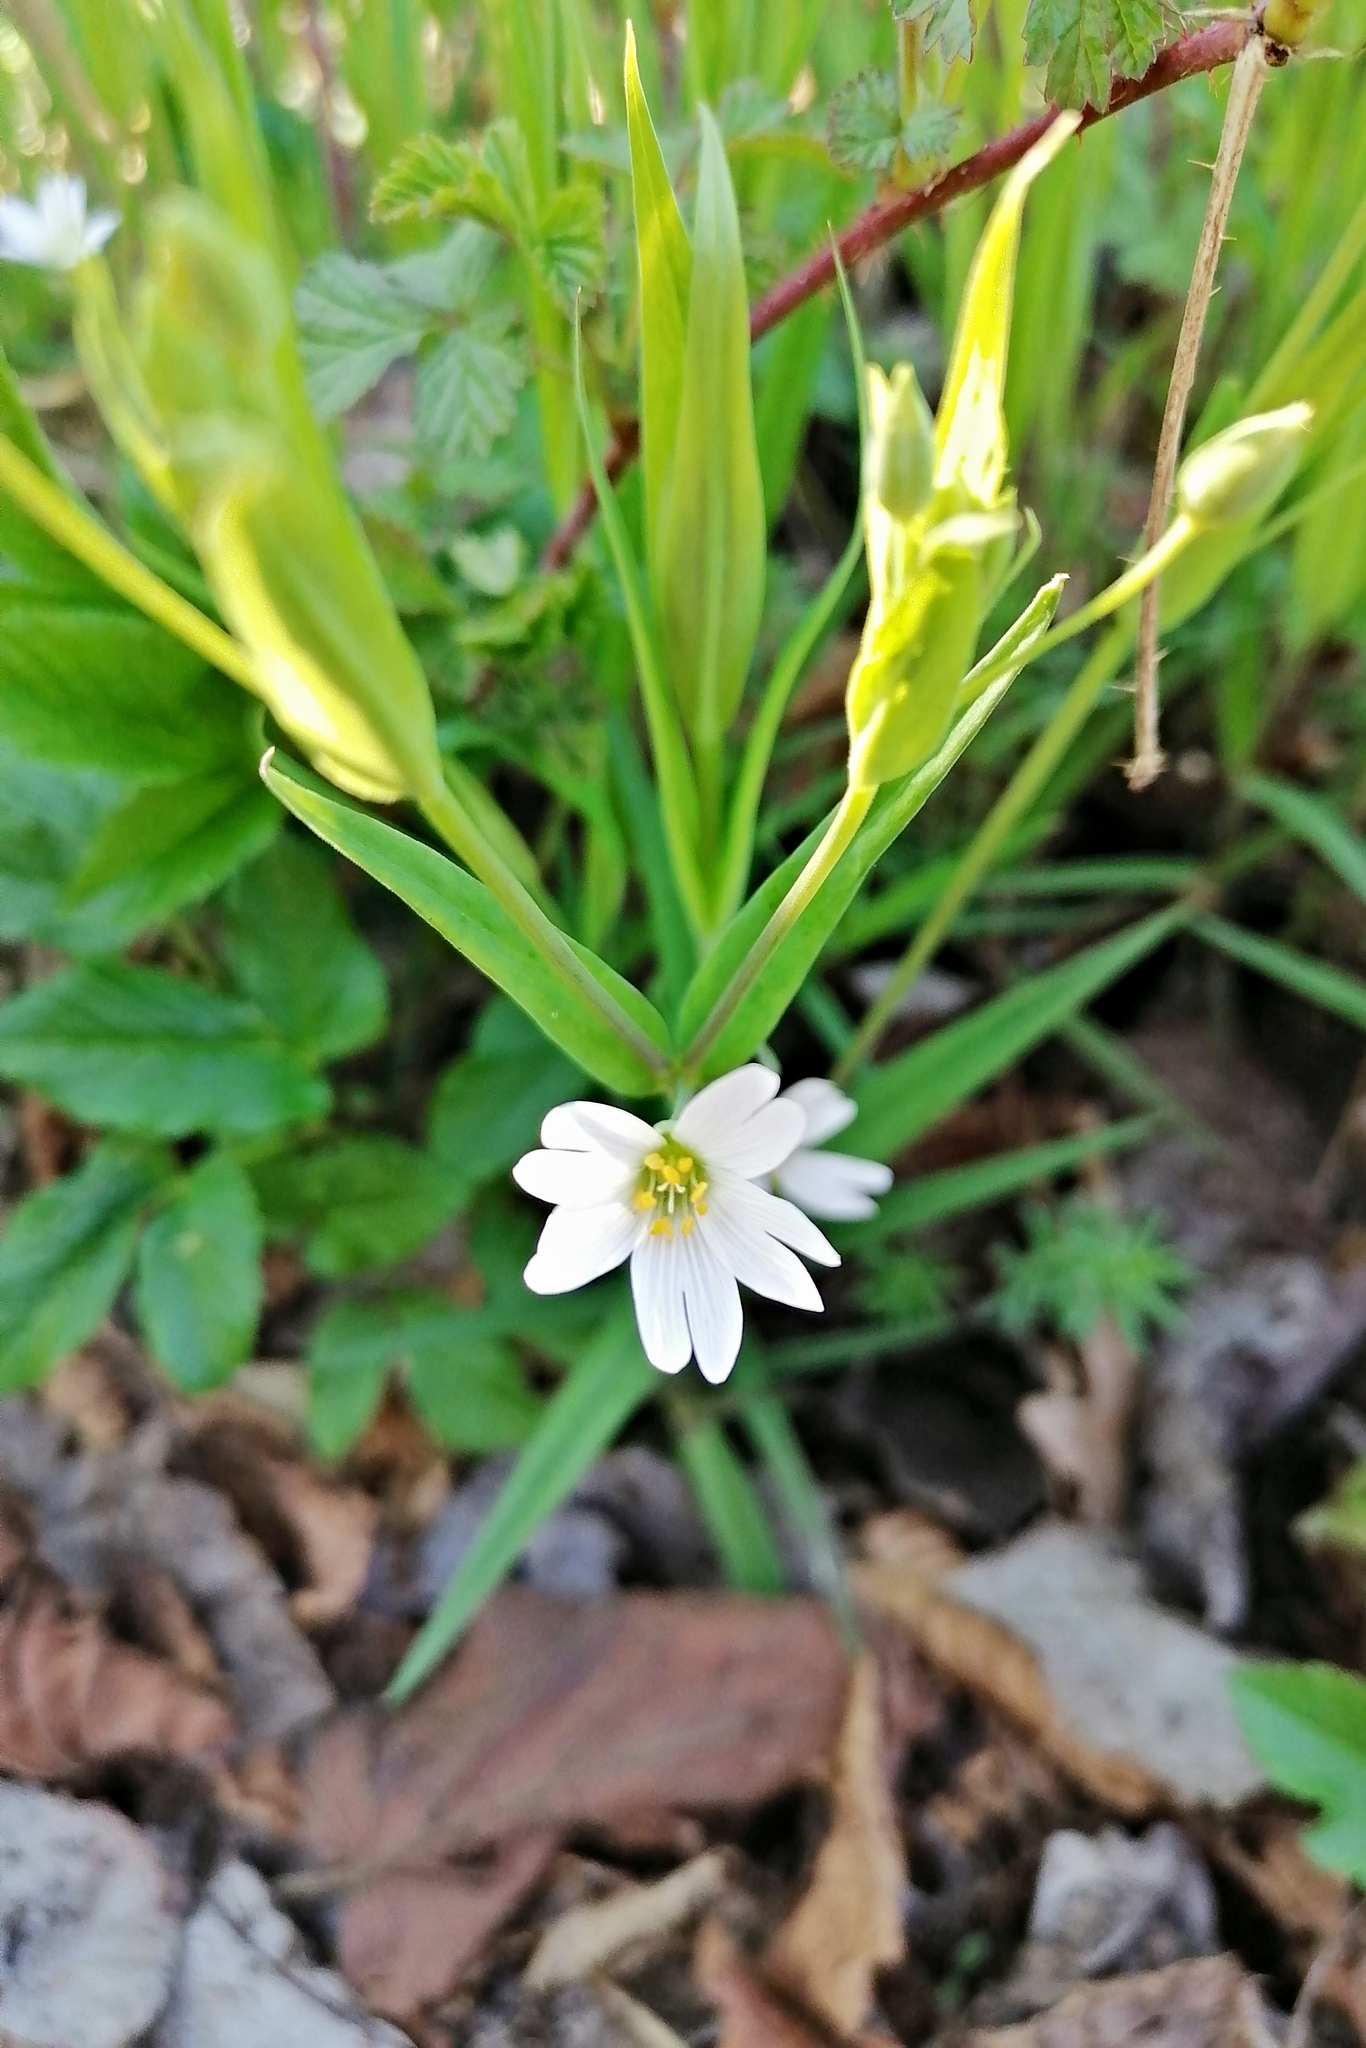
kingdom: Plantae
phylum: Tracheophyta
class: Magnoliopsida
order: Caryophyllales
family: Caryophyllaceae
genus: Rabelera
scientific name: Rabelera holostea
